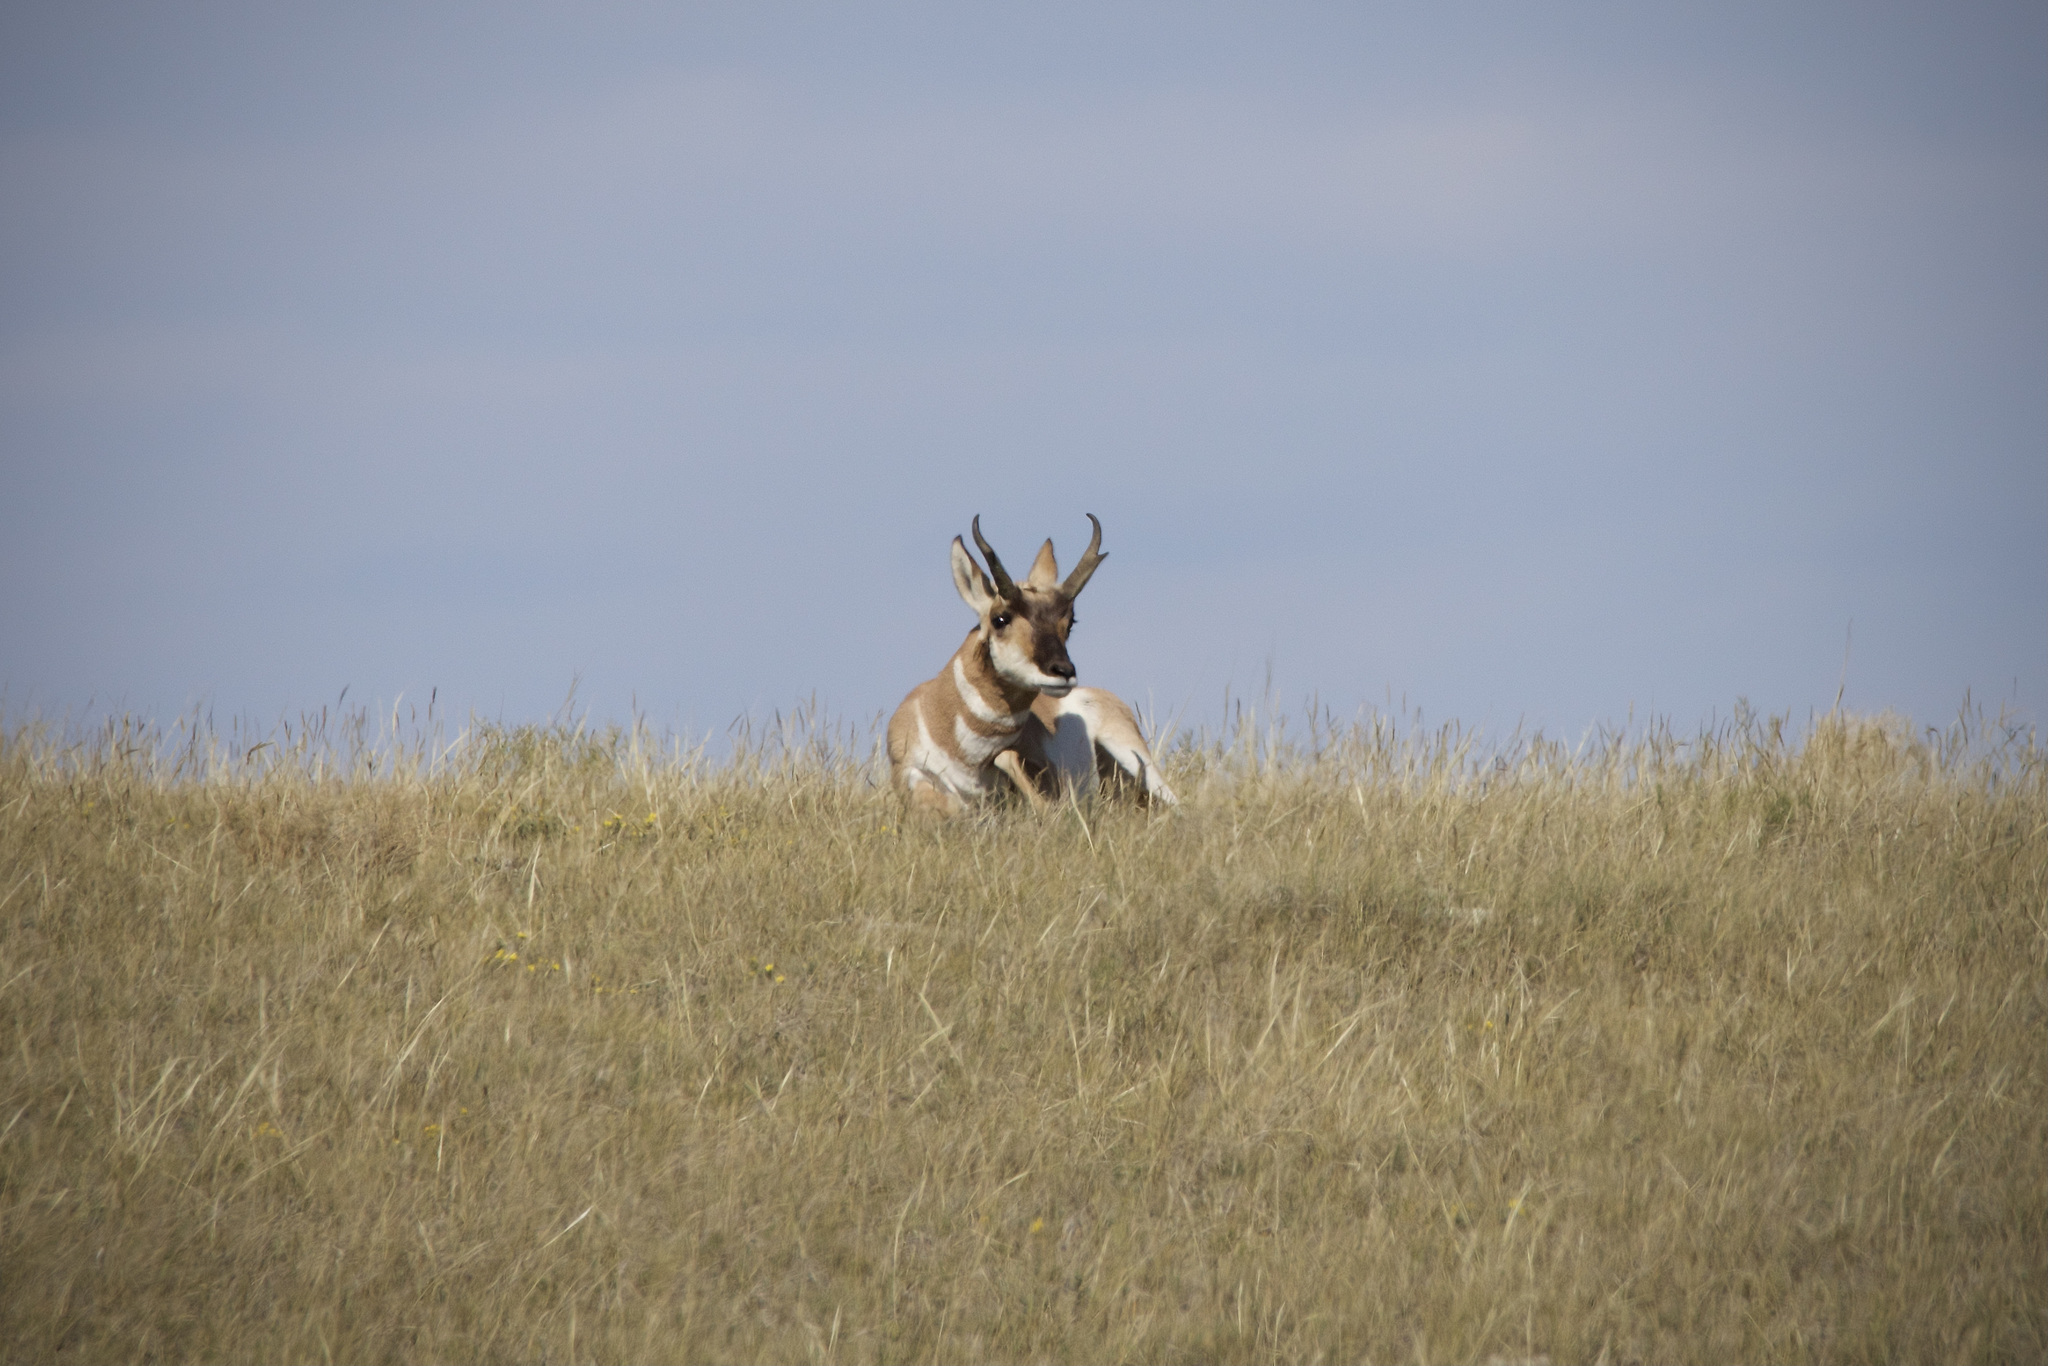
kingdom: Animalia
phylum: Chordata
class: Mammalia
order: Artiodactyla
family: Antilocapridae
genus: Antilocapra
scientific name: Antilocapra americana
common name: Pronghorn
